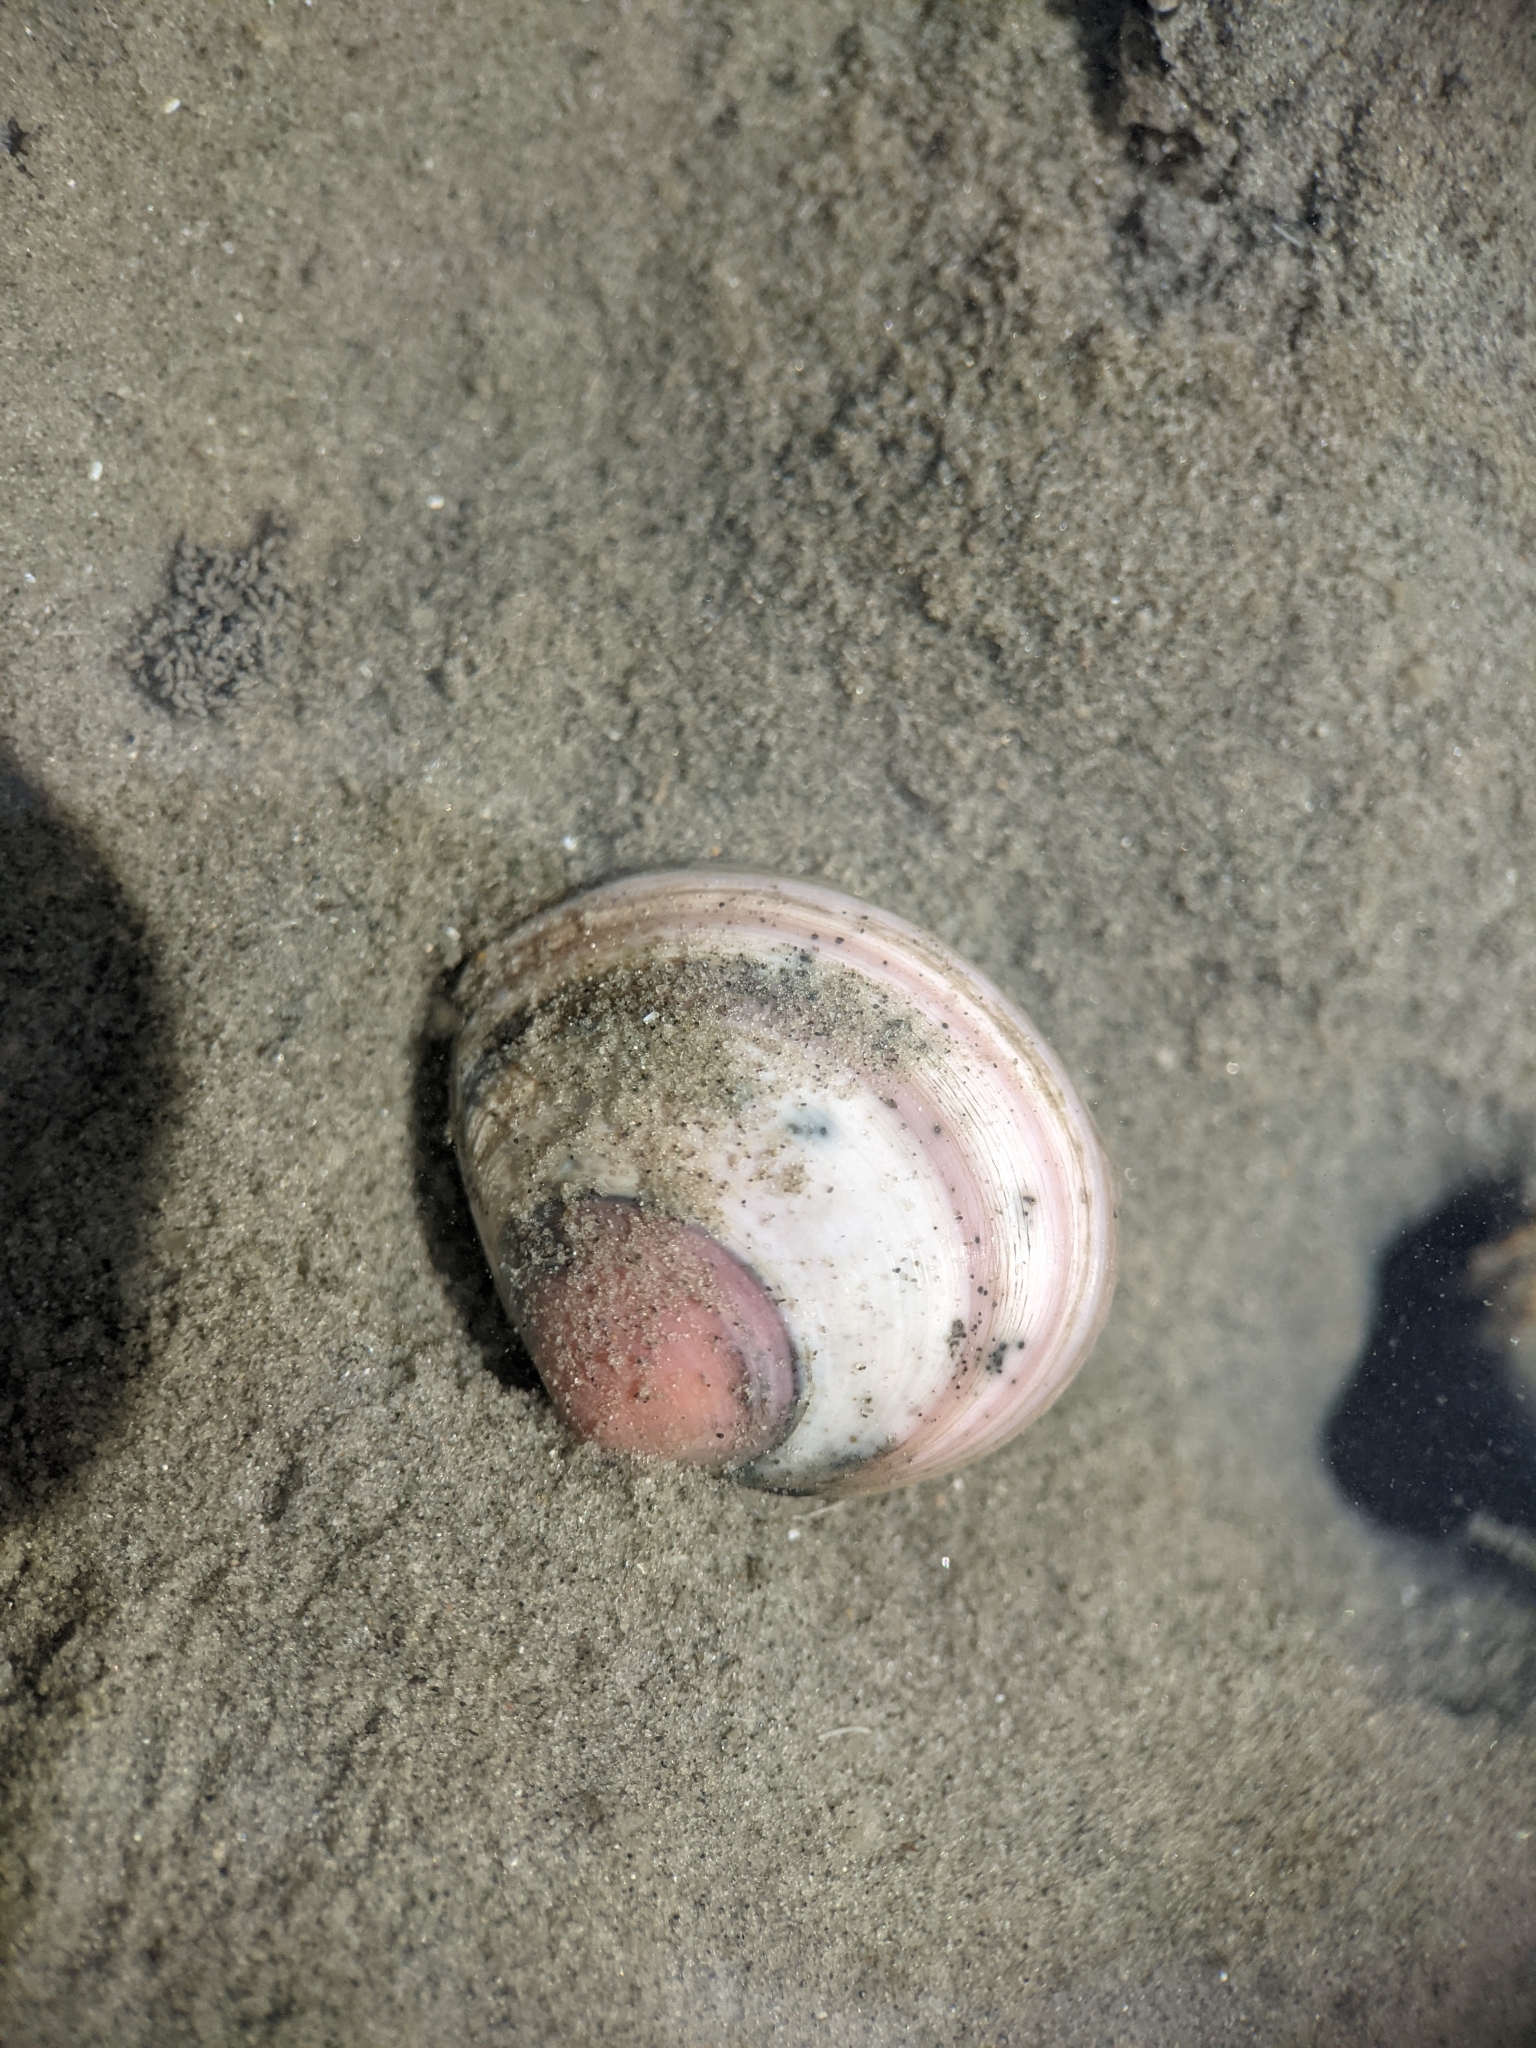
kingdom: Animalia
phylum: Mollusca
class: Bivalvia
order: Cardiida
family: Tellinidae
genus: Macoma
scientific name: Macoma balthica
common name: Baltic tellin
